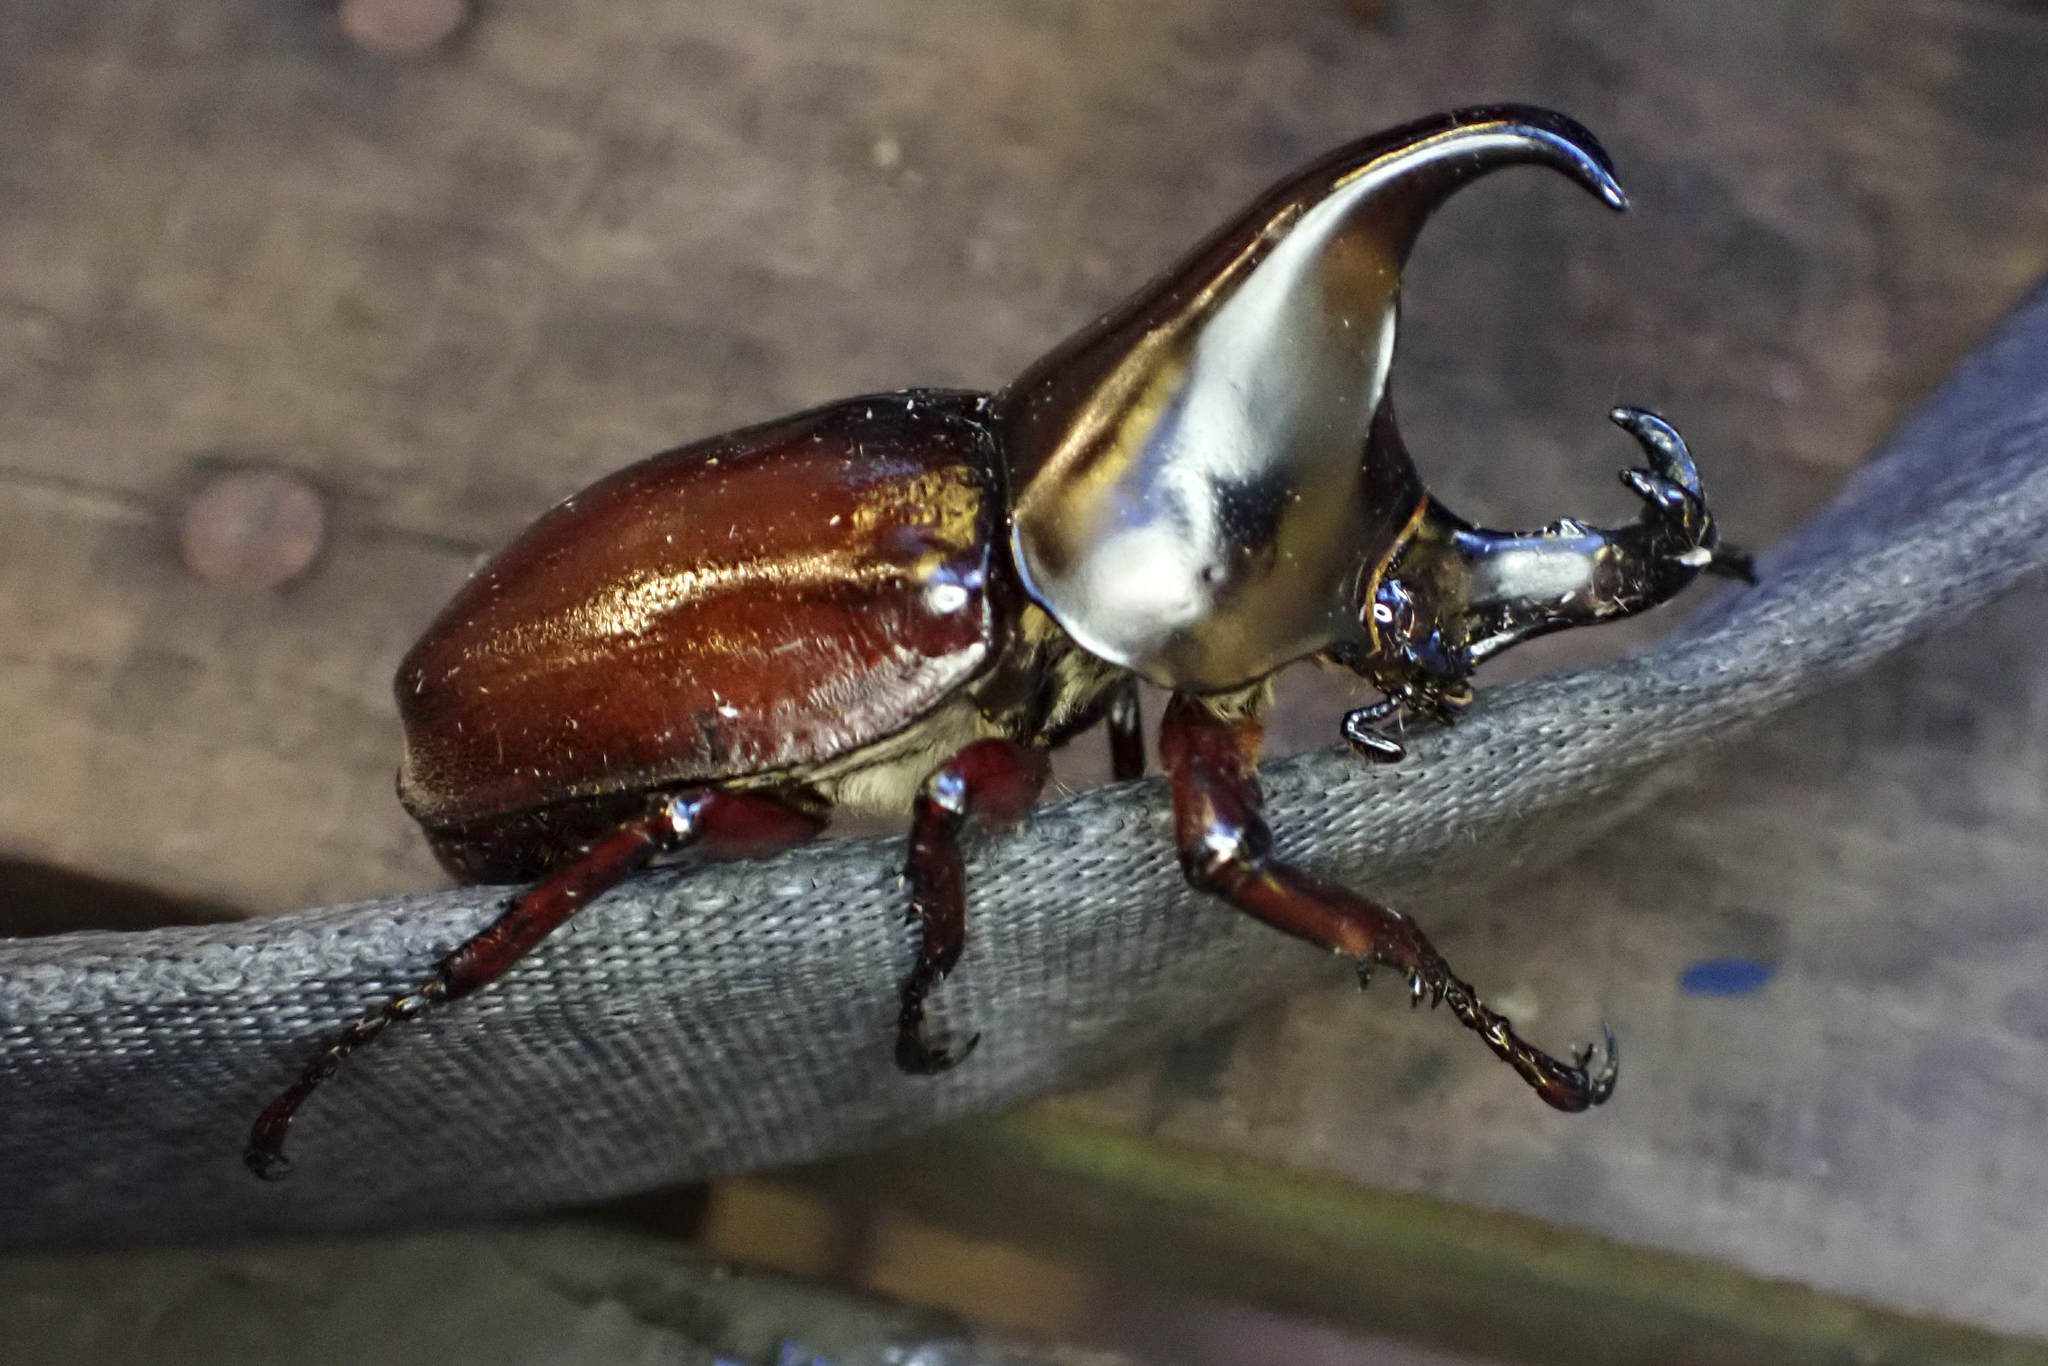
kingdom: Animalia
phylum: Arthropoda
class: Insecta
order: Coleoptera
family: Scarabaeidae
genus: Xylotrupes
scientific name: Xylotrupes beckeri
